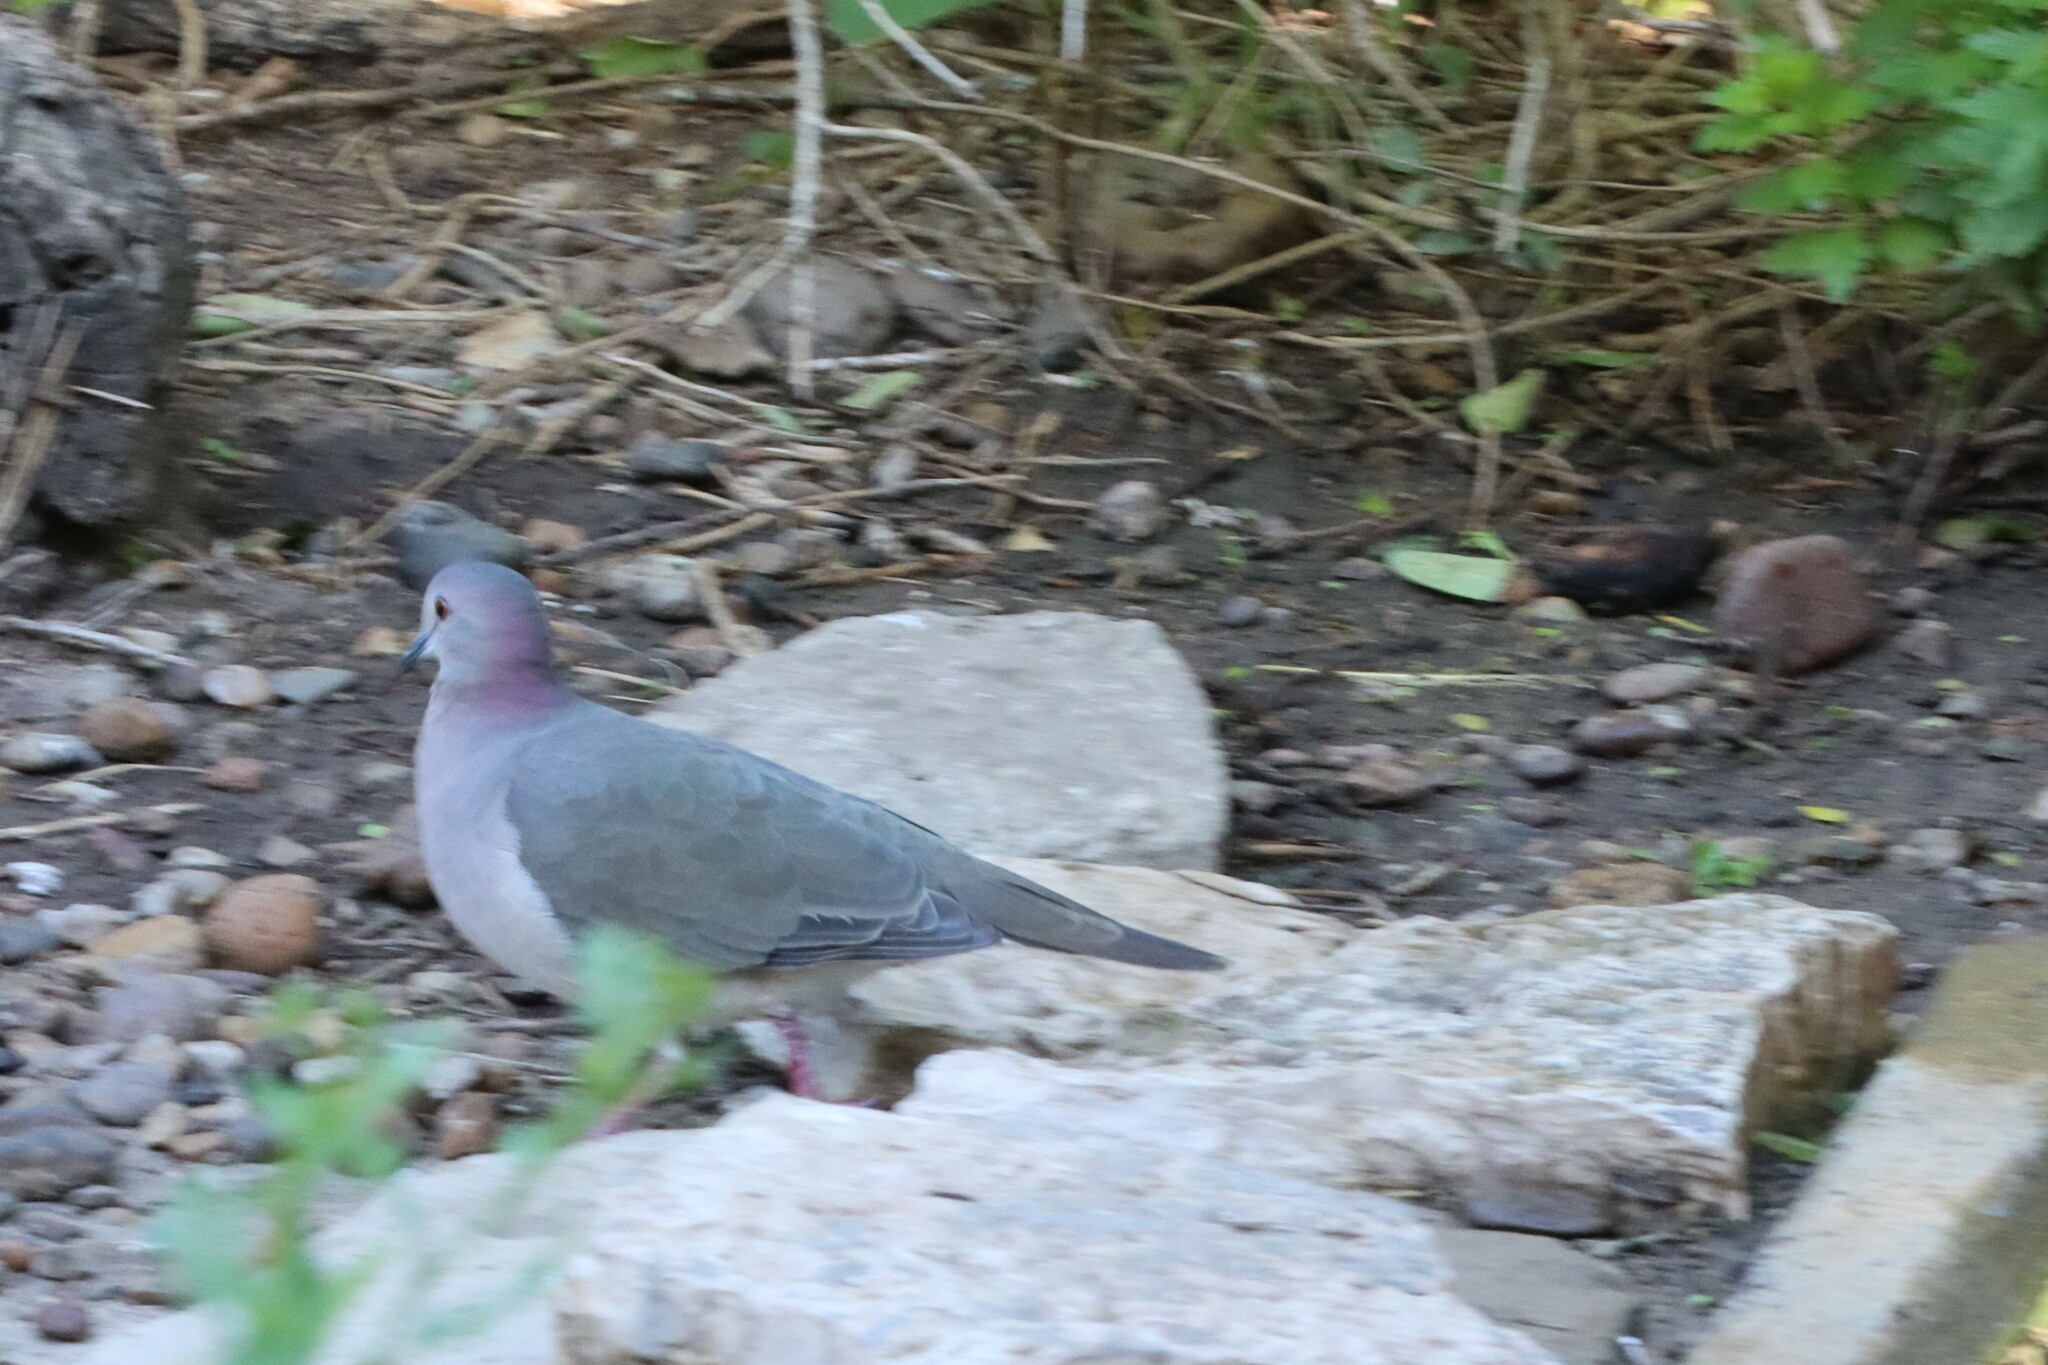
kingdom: Animalia
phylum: Chordata
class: Aves
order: Columbiformes
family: Columbidae
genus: Leptotila
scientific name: Leptotila verreauxi
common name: White-tipped dove
